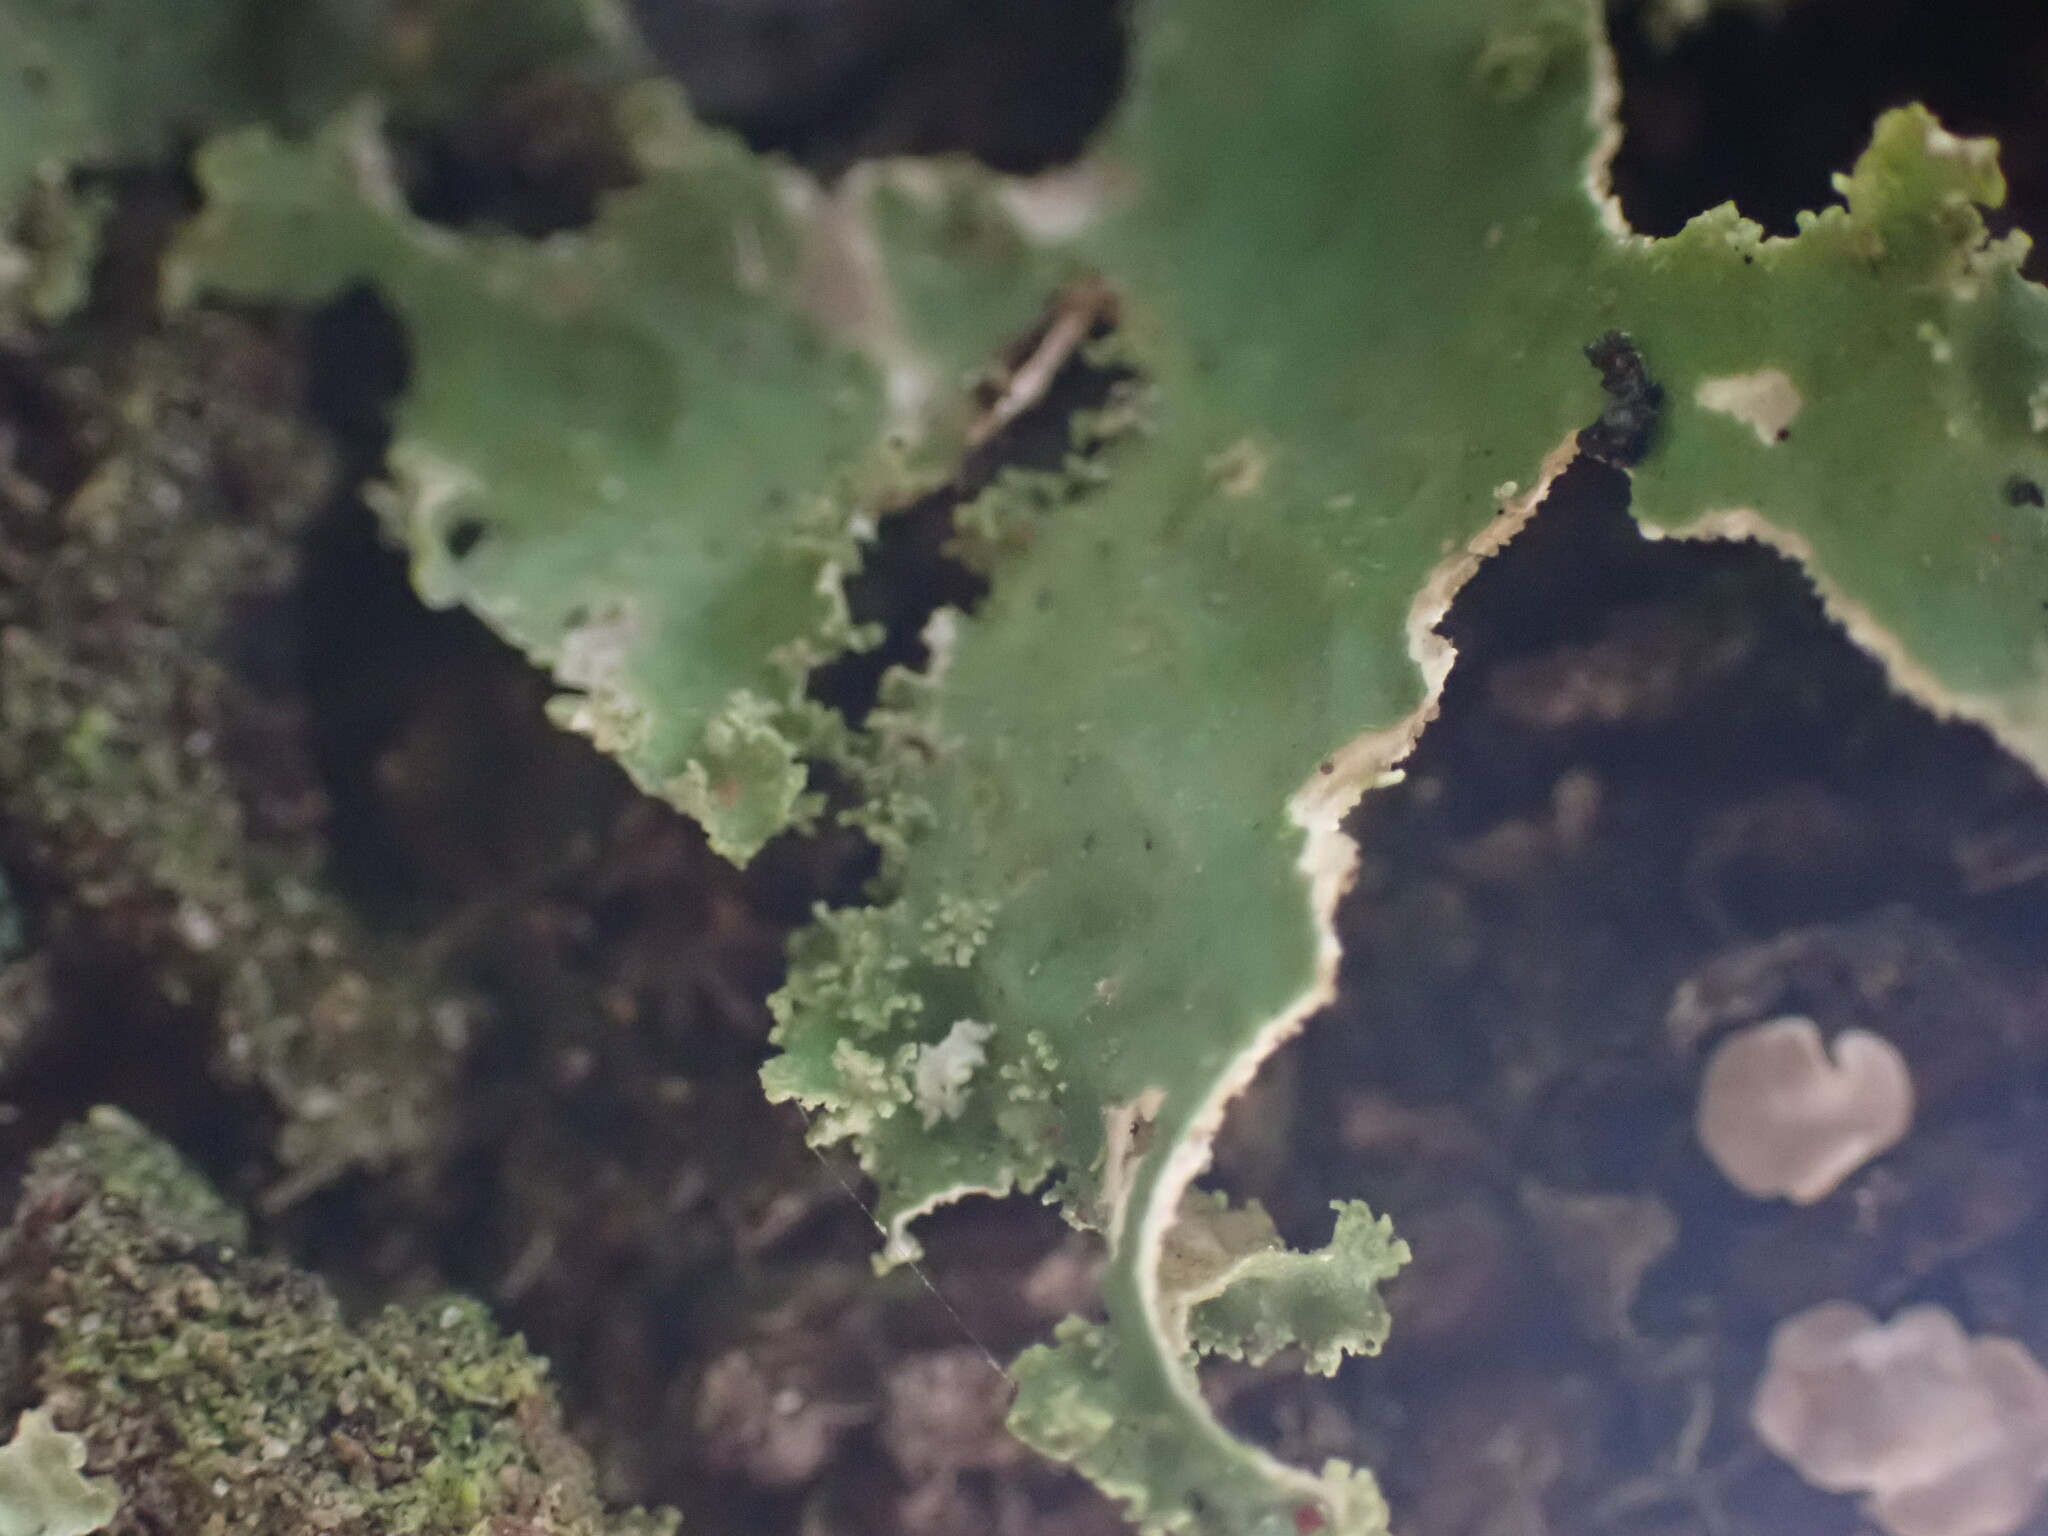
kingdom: Fungi
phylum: Ascomycota
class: Lecanoromycetes
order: Peltigerales
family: Lobariaceae
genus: Pseudocyphellaria
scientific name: Pseudocyphellaria rainierensis
